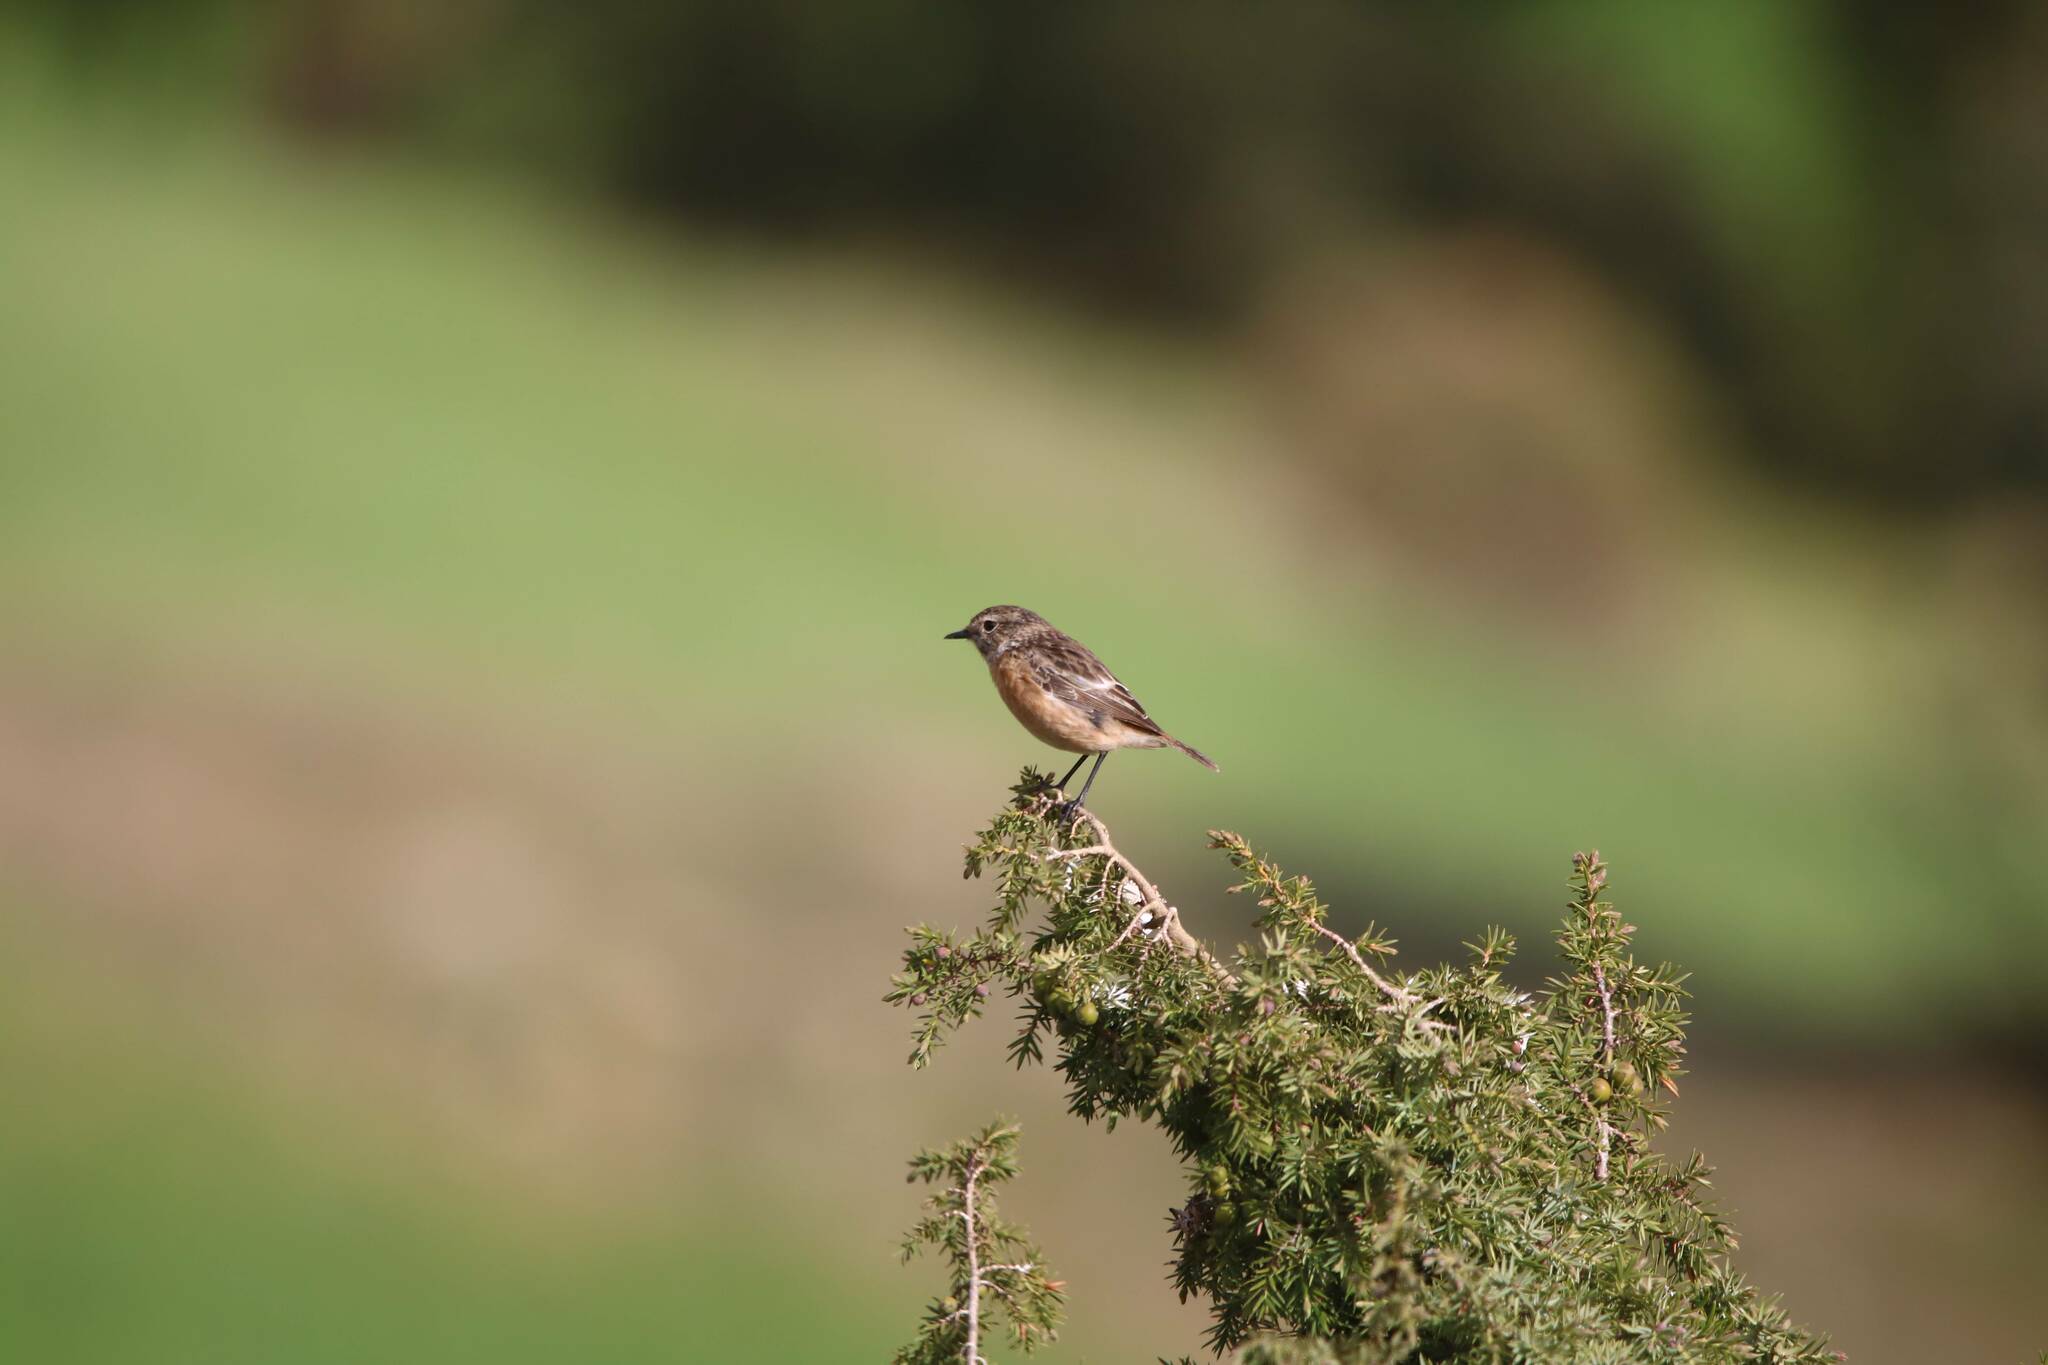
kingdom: Animalia
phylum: Chordata
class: Aves
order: Passeriformes
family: Muscicapidae
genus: Saxicola
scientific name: Saxicola rubicola
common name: European stonechat
